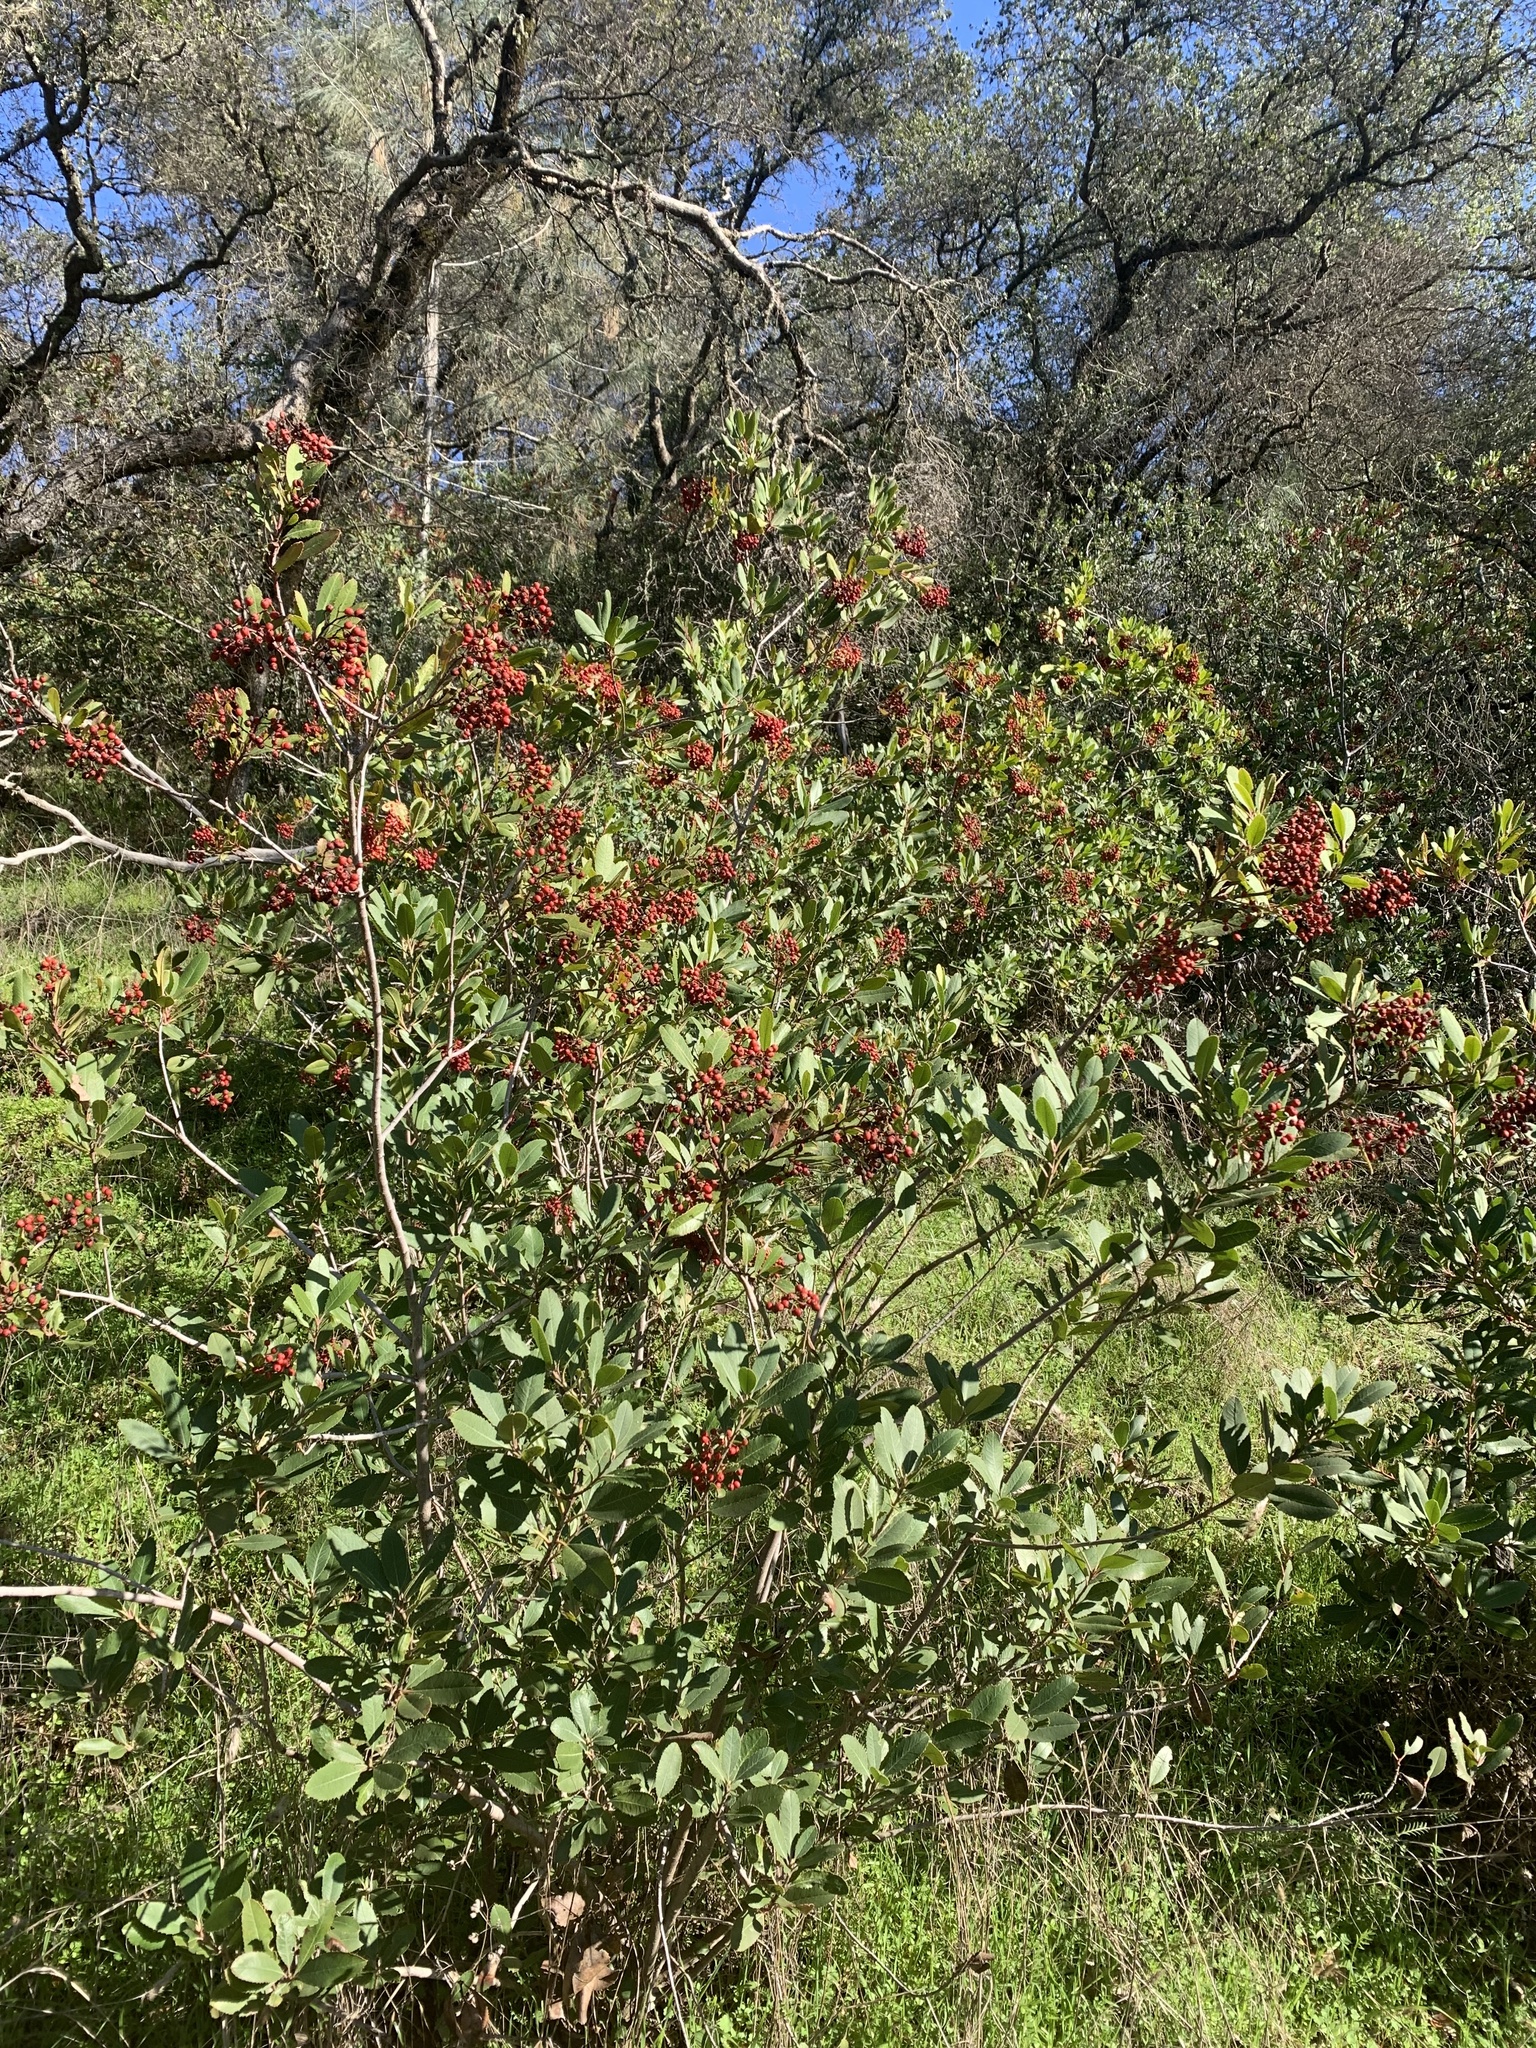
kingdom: Plantae
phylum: Tracheophyta
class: Magnoliopsida
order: Rosales
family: Rosaceae
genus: Heteromeles
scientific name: Heteromeles arbutifolia
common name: California-holly
